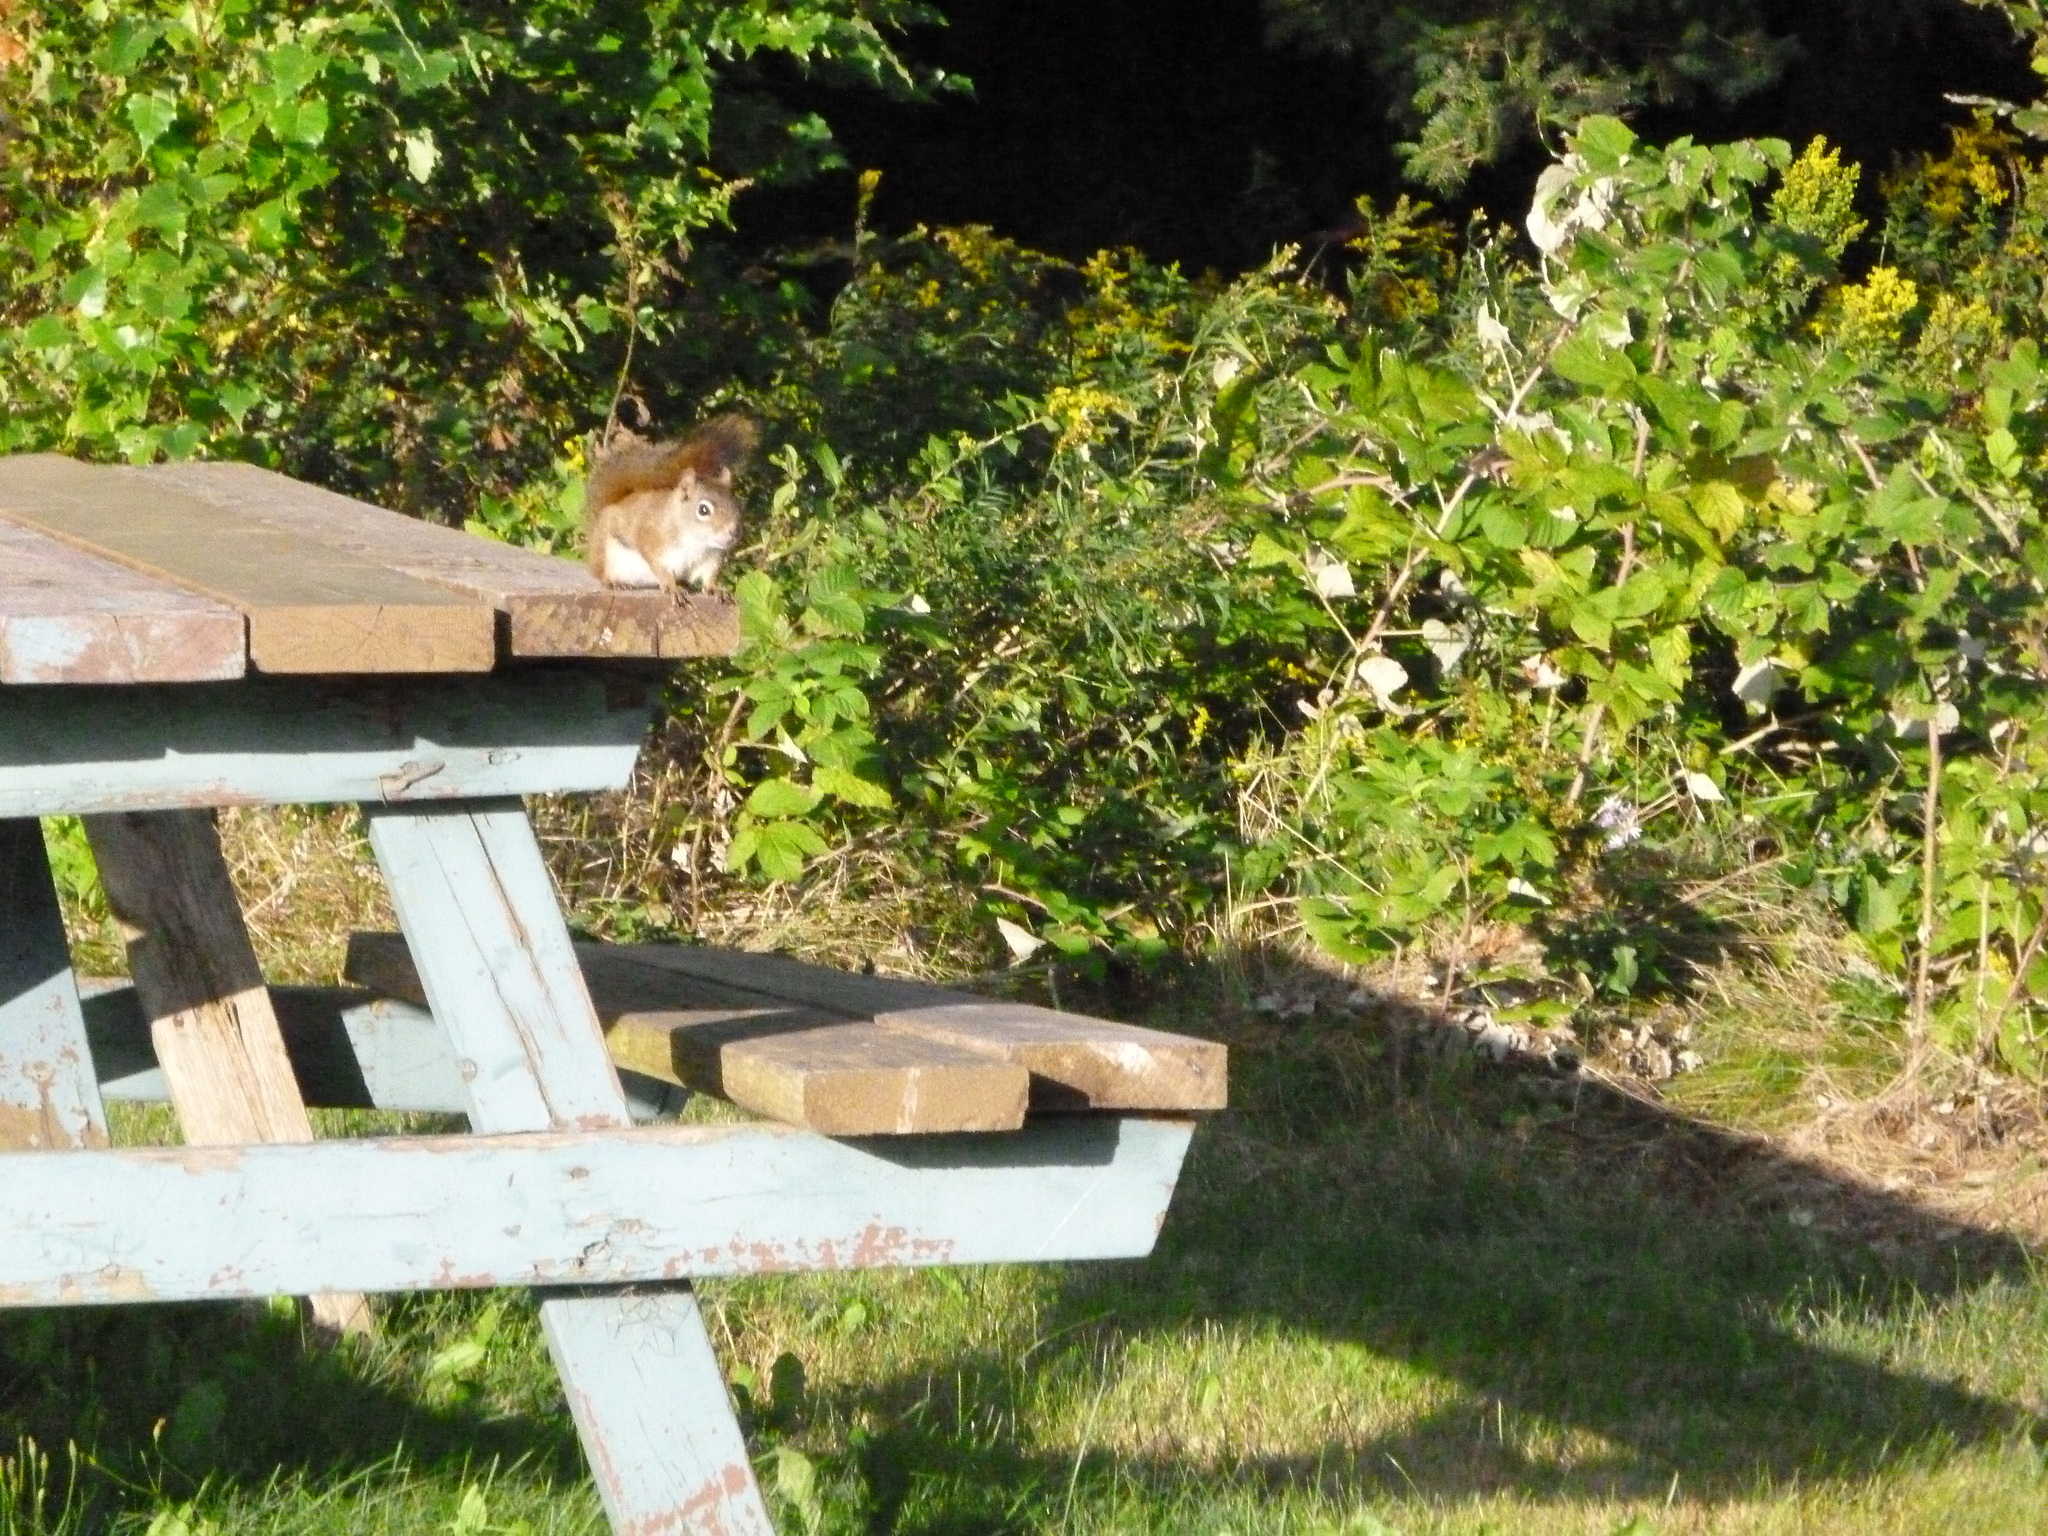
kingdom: Animalia
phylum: Chordata
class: Mammalia
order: Rodentia
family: Sciuridae
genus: Tamiasciurus
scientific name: Tamiasciurus hudsonicus
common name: Red squirrel
